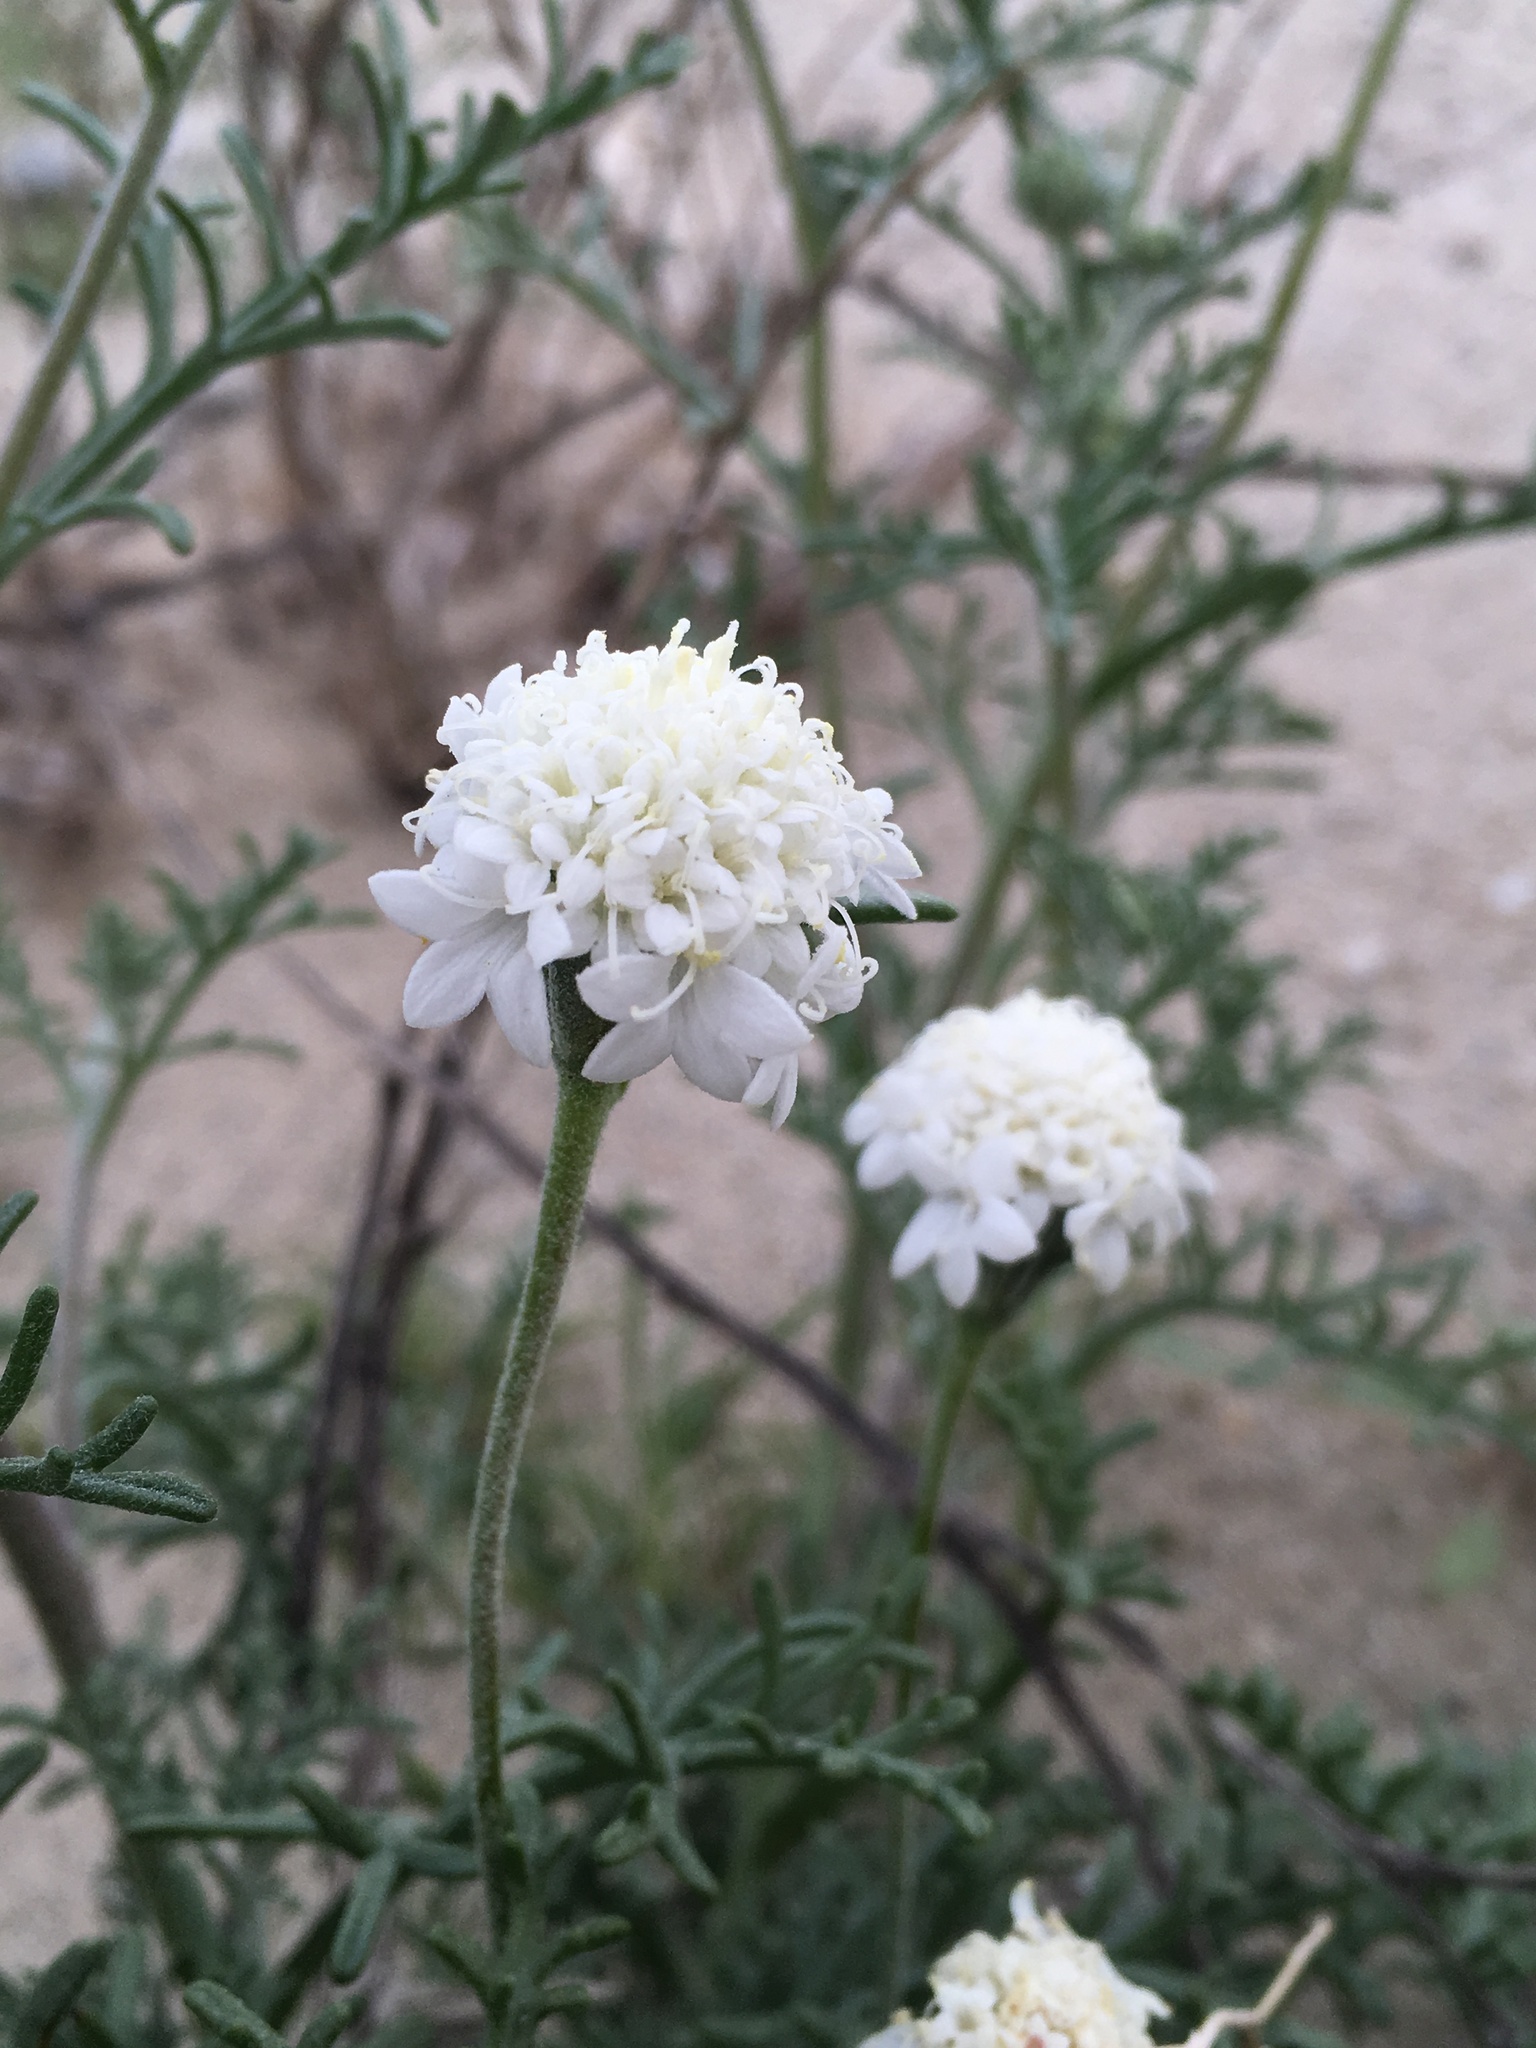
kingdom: Plantae
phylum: Tracheophyta
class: Magnoliopsida
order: Asterales
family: Asteraceae
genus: Chaenactis
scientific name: Chaenactis stevioides
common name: Desert pincushion
